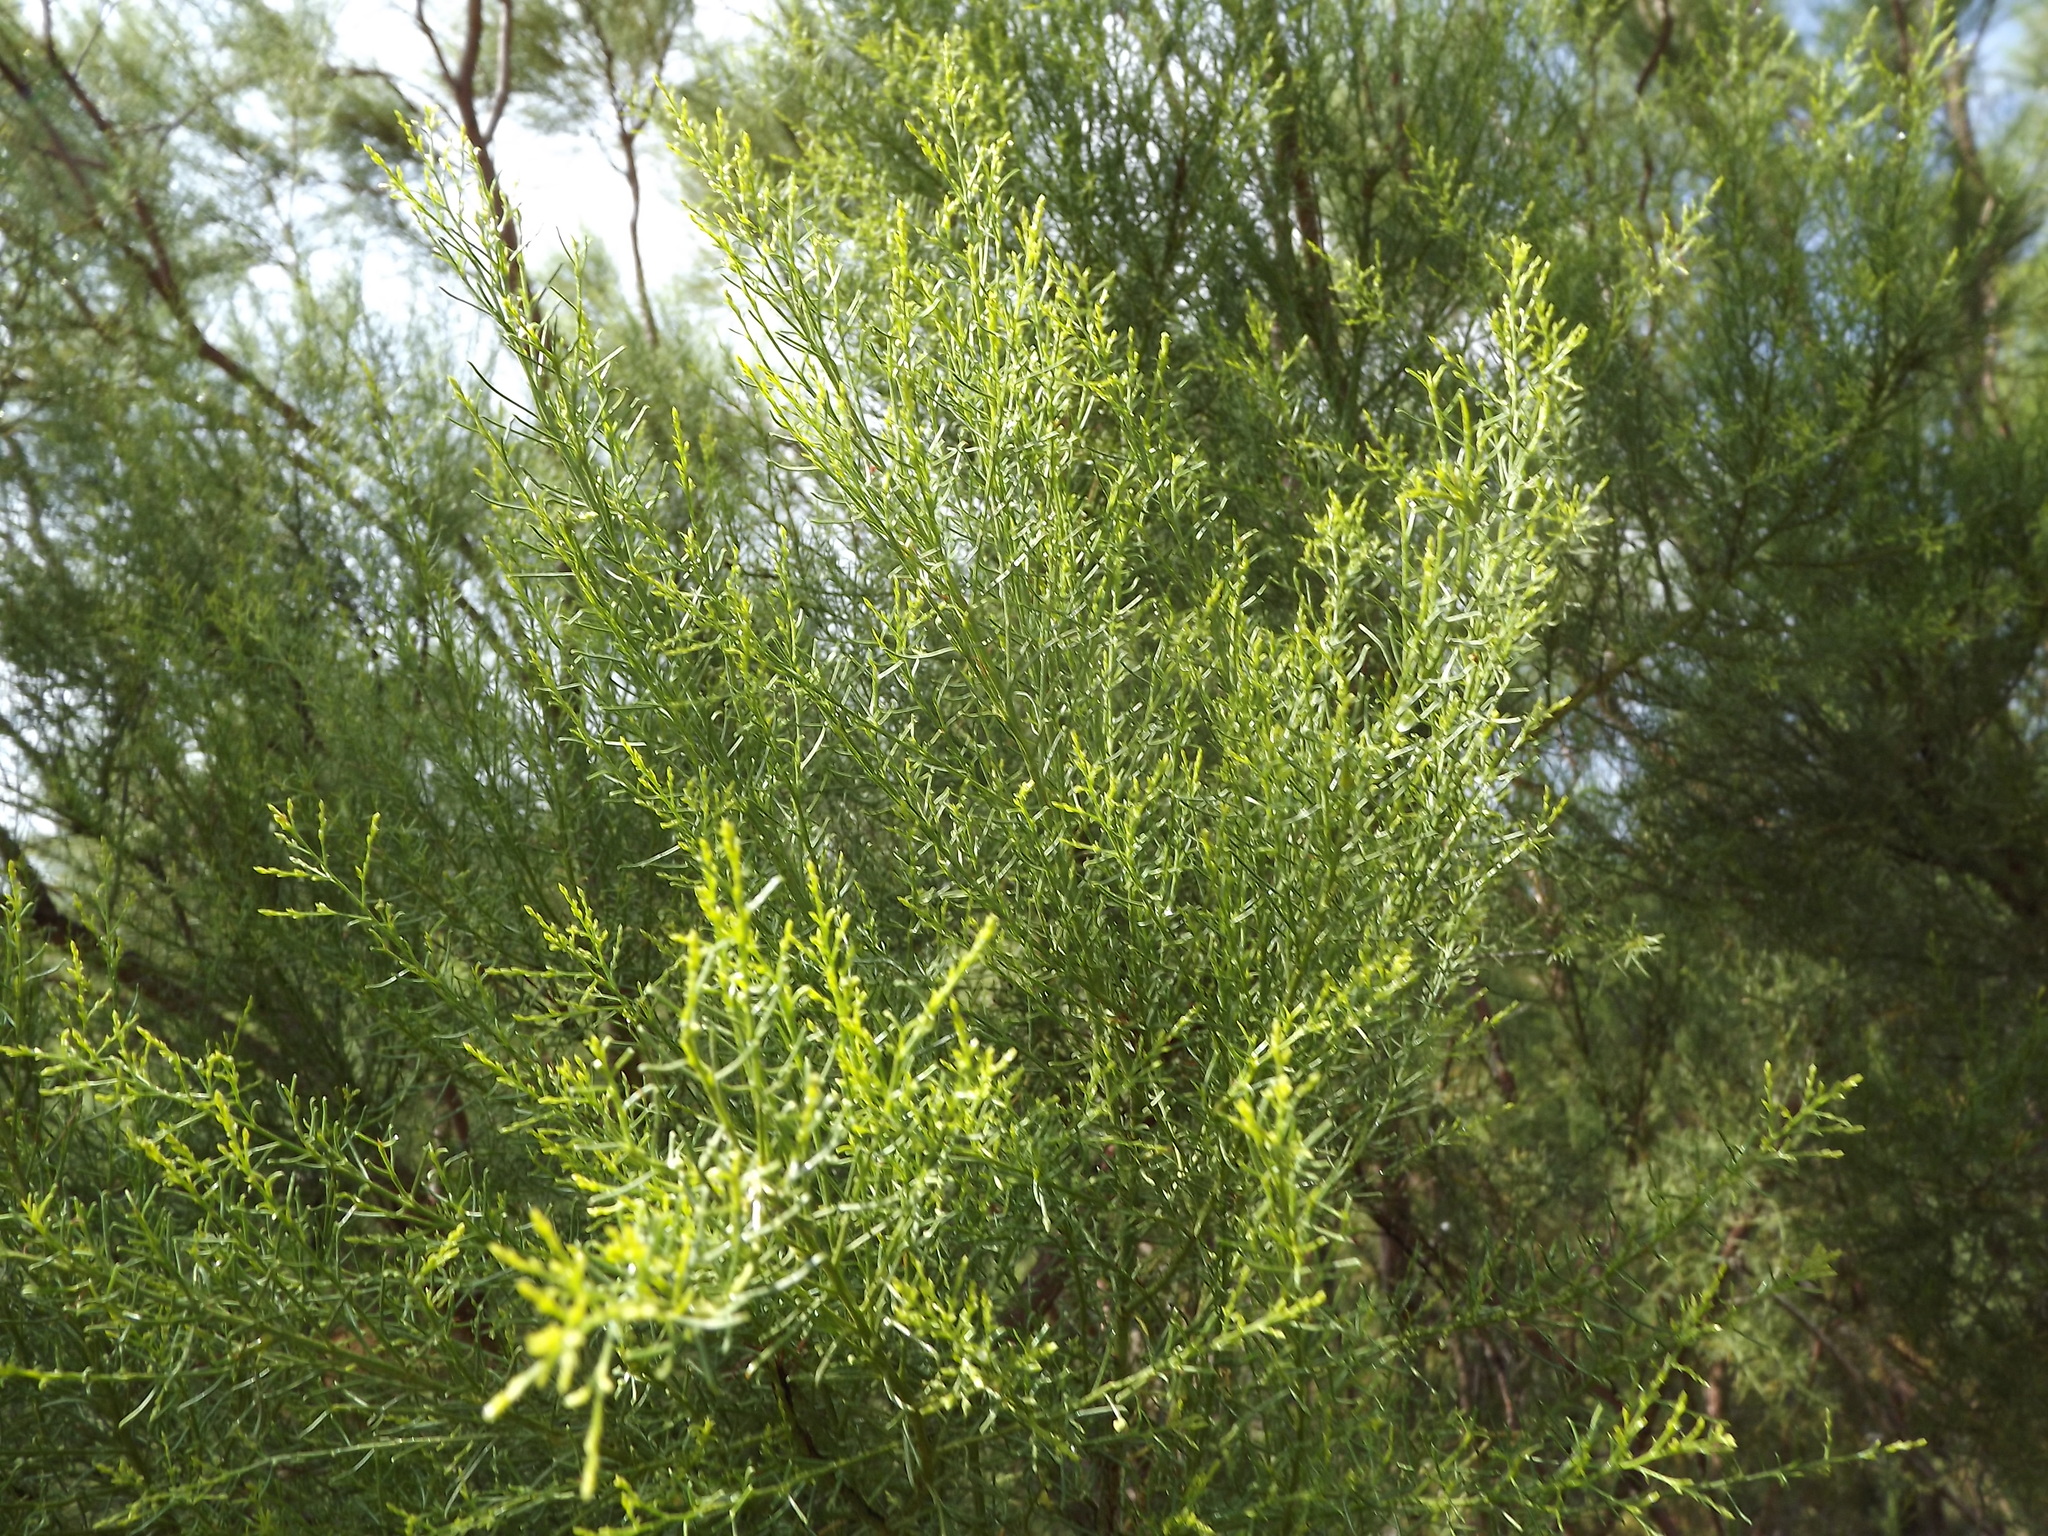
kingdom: Plantae
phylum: Tracheophyta
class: Magnoliopsida
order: Rosales
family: Rosaceae
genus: Adenostoma
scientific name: Adenostoma sparsifolium
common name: Red shank
